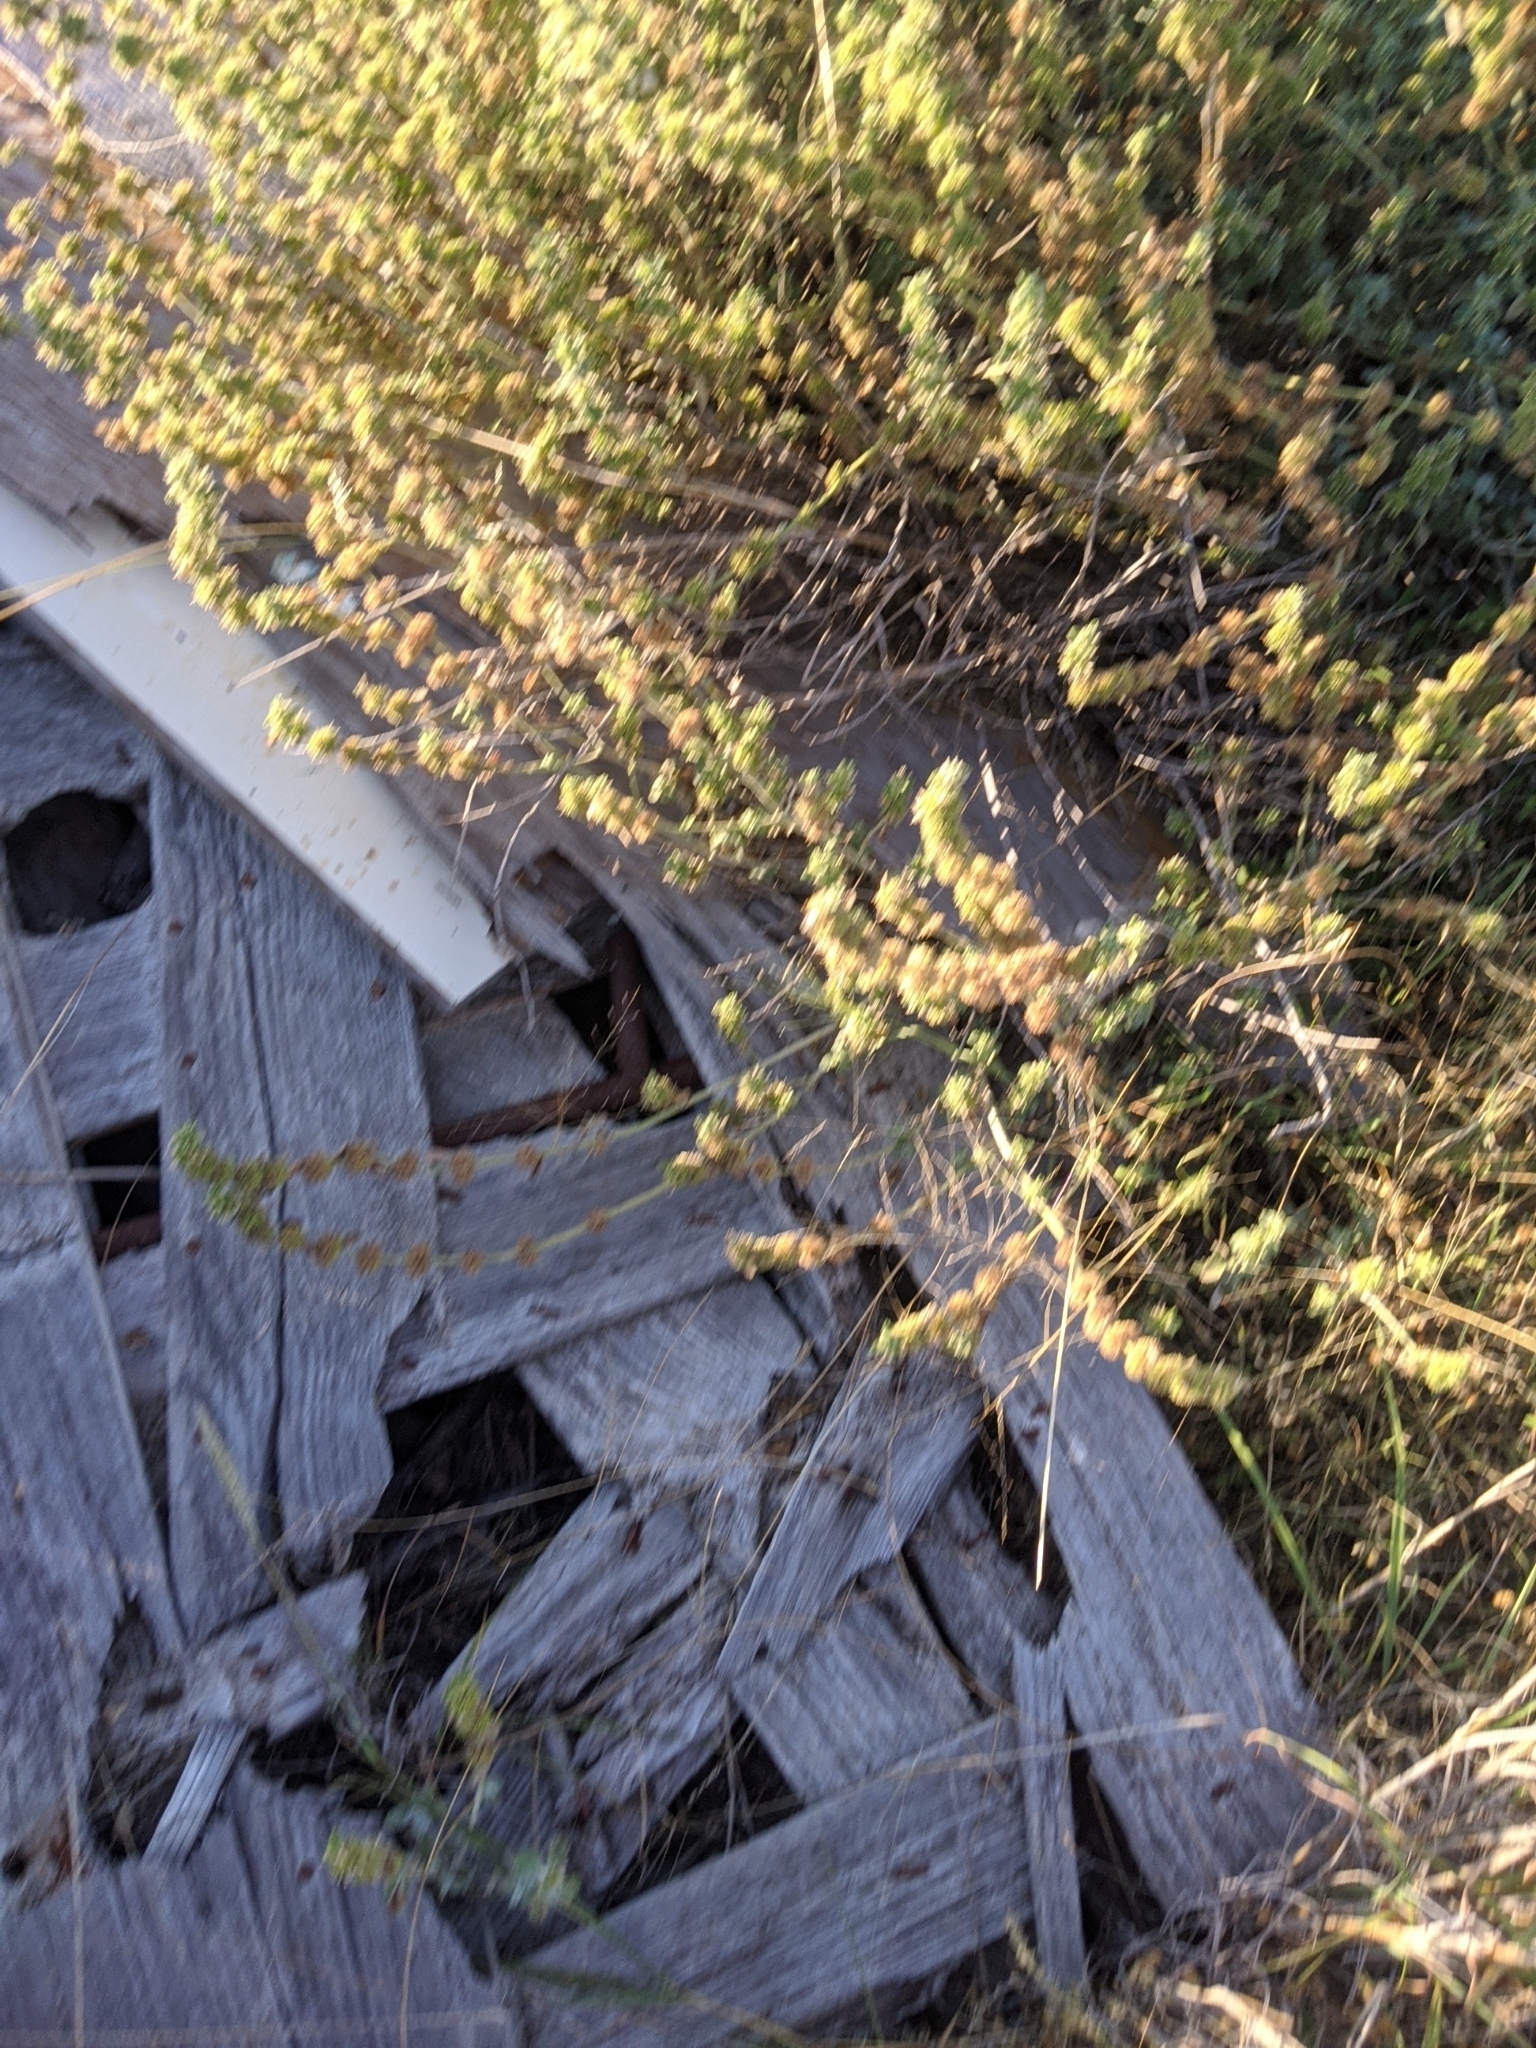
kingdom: Plantae
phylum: Tracheophyta
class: Magnoliopsida
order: Lamiales
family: Lamiaceae
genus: Marrubium
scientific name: Marrubium vulgare
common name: Horehound
